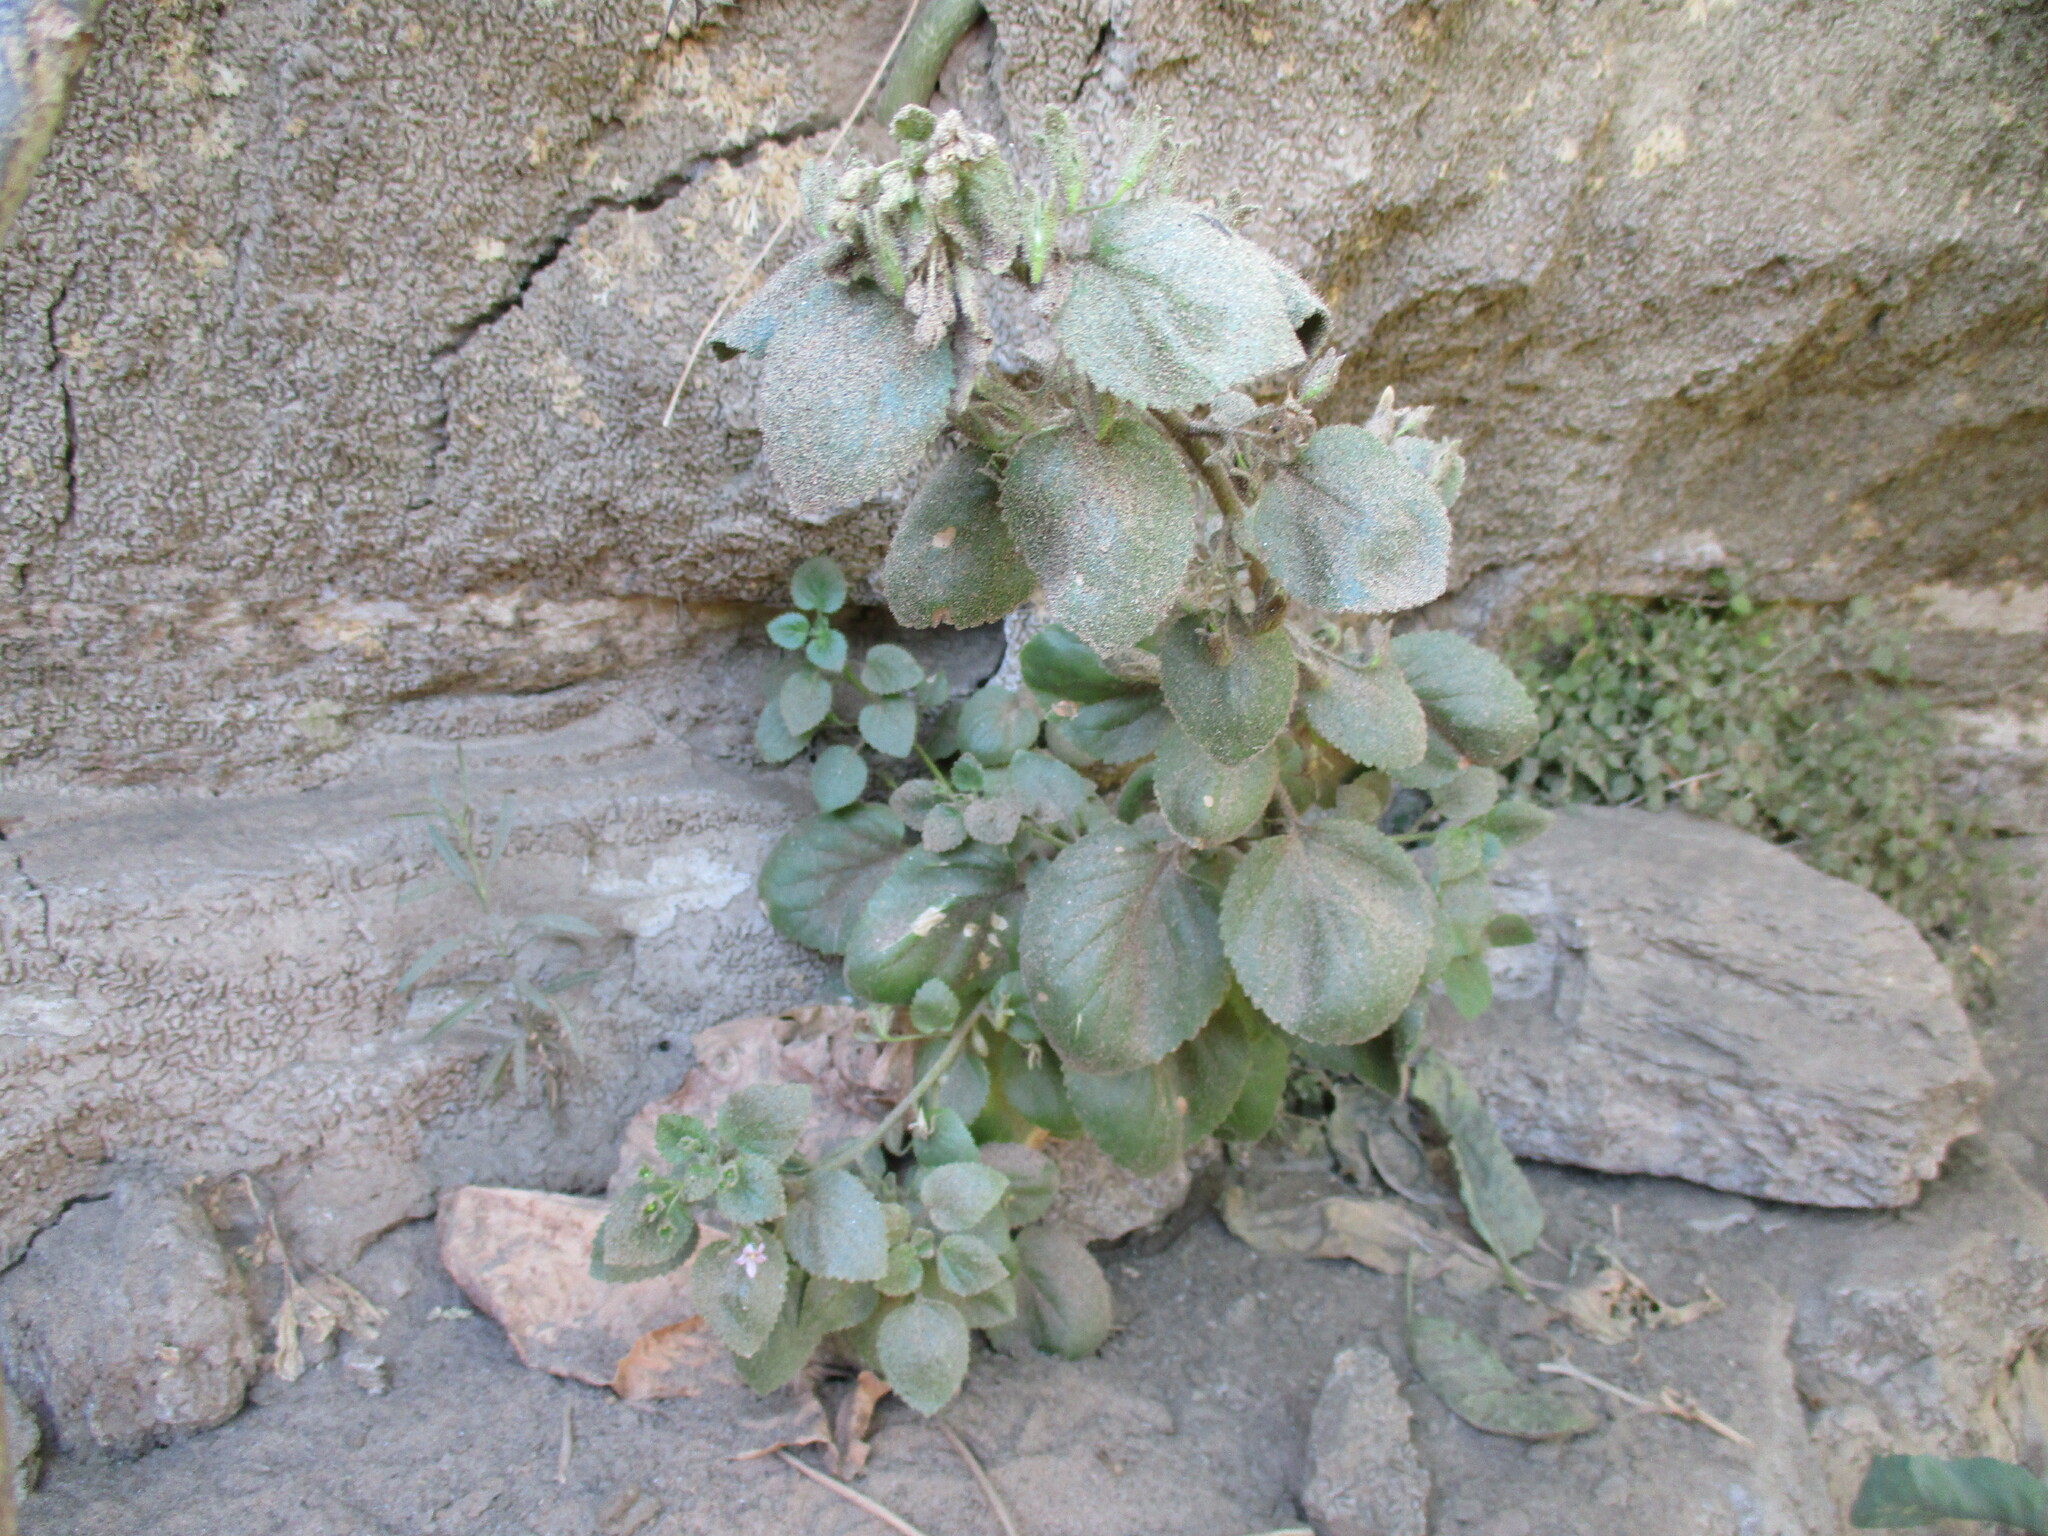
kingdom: Plantae
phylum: Tracheophyta
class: Magnoliopsida
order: Lamiales
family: Scrophulariaceae
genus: Camptoloma
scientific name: Camptoloma rotundifolium
